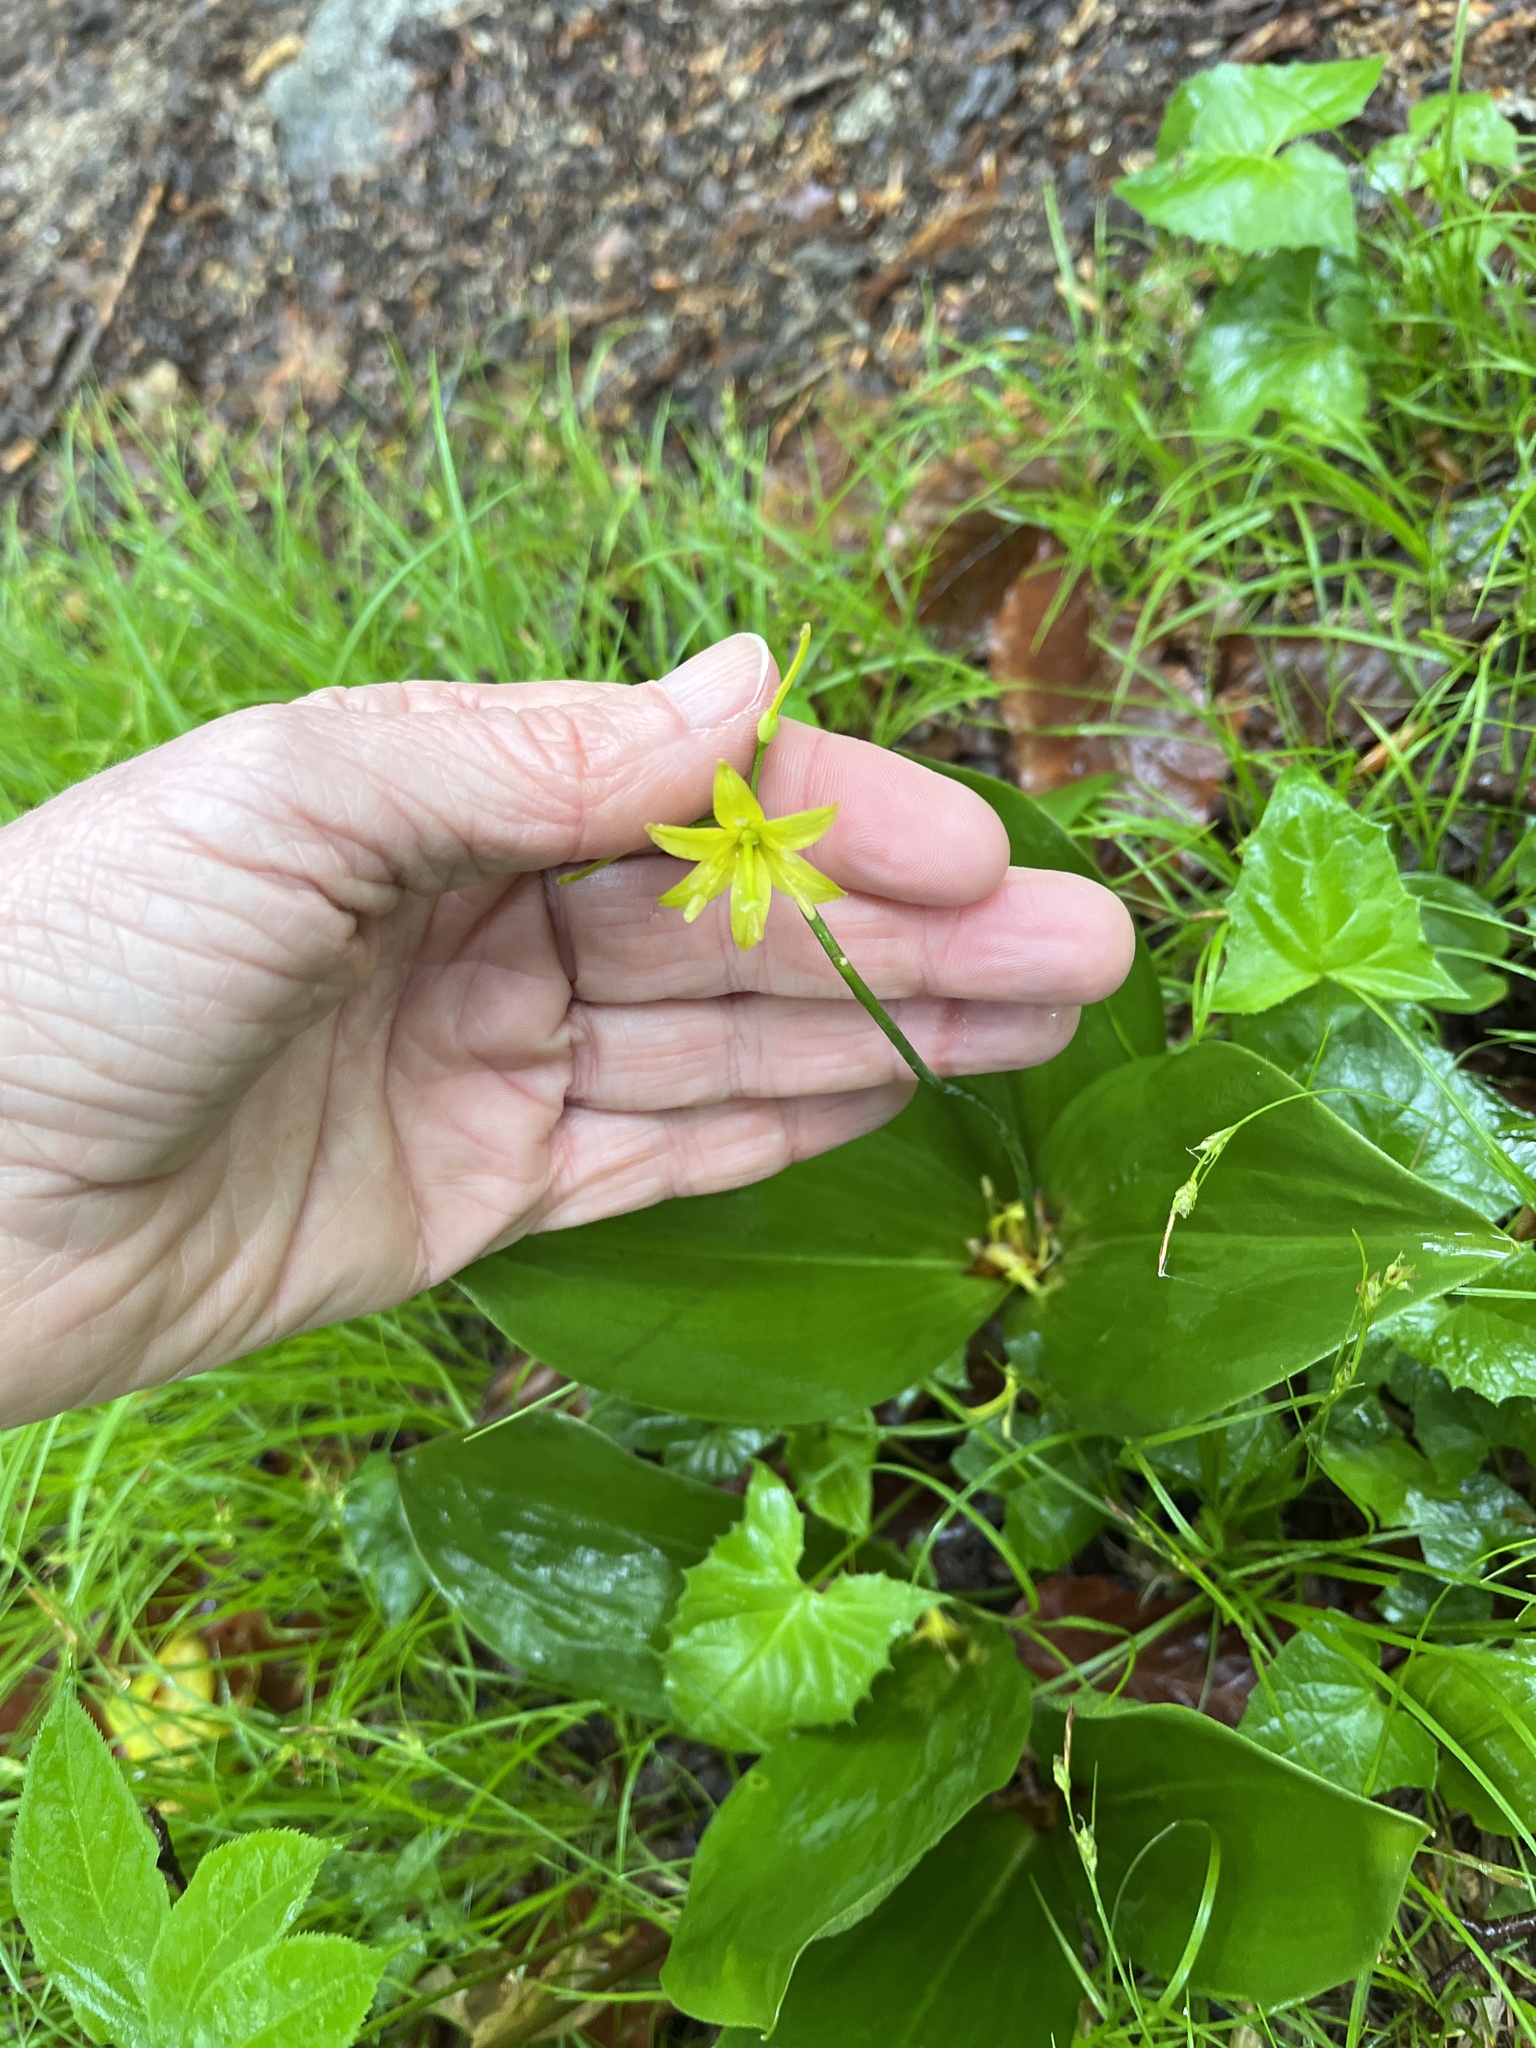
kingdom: Plantae
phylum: Tracheophyta
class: Liliopsida
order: Liliales
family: Liliaceae
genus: Clintonia
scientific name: Clintonia borealis
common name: Yellow clintonia
